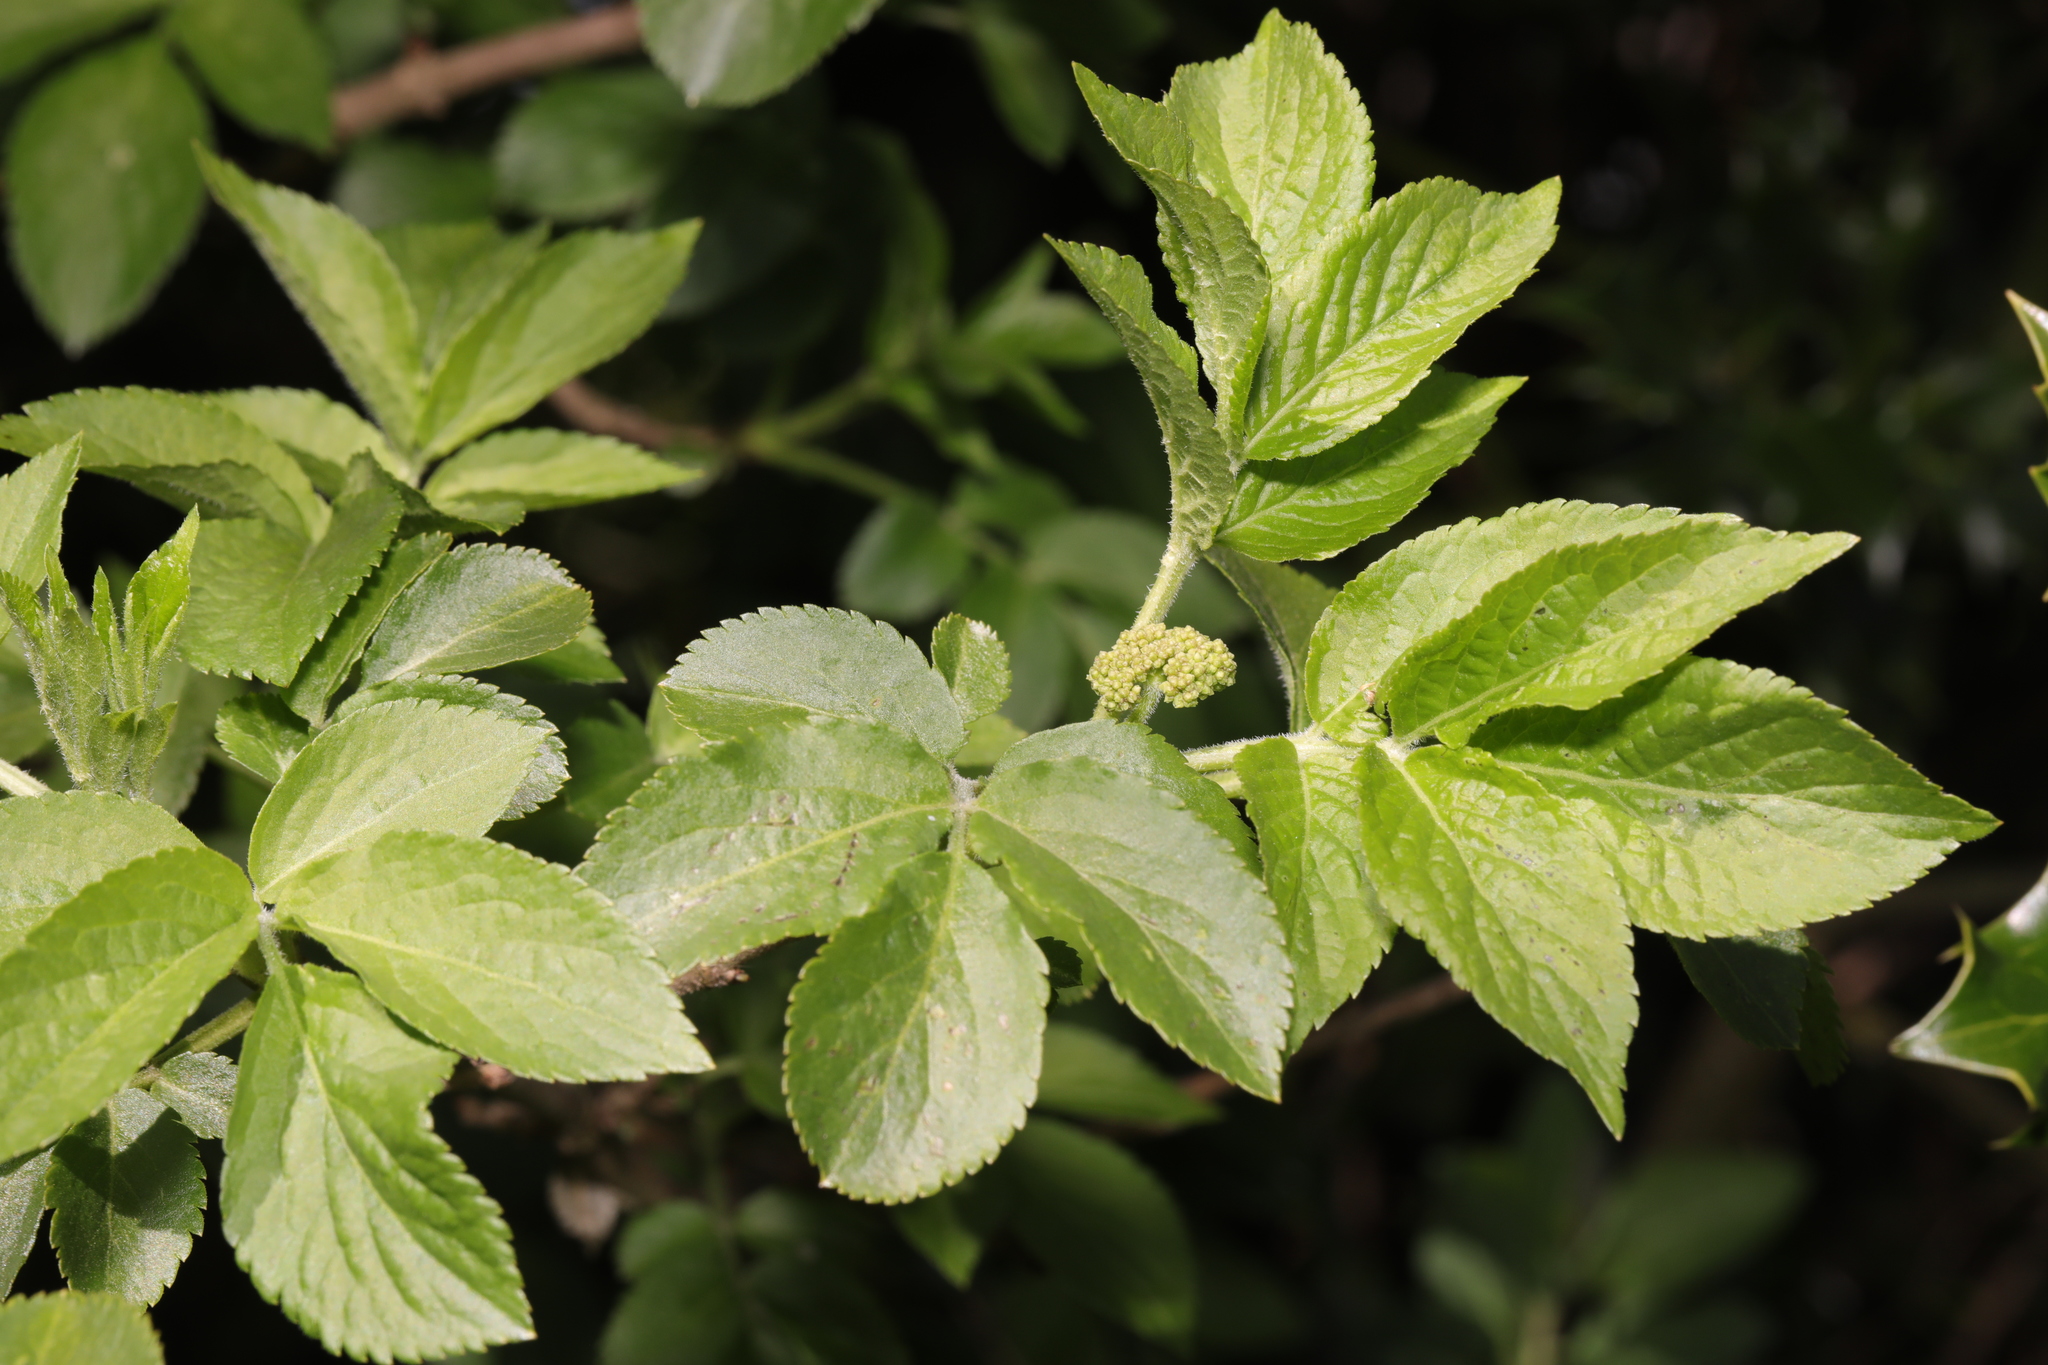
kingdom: Plantae
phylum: Tracheophyta
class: Magnoliopsida
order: Dipsacales
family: Viburnaceae
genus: Sambucus
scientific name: Sambucus nigra
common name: Elder
